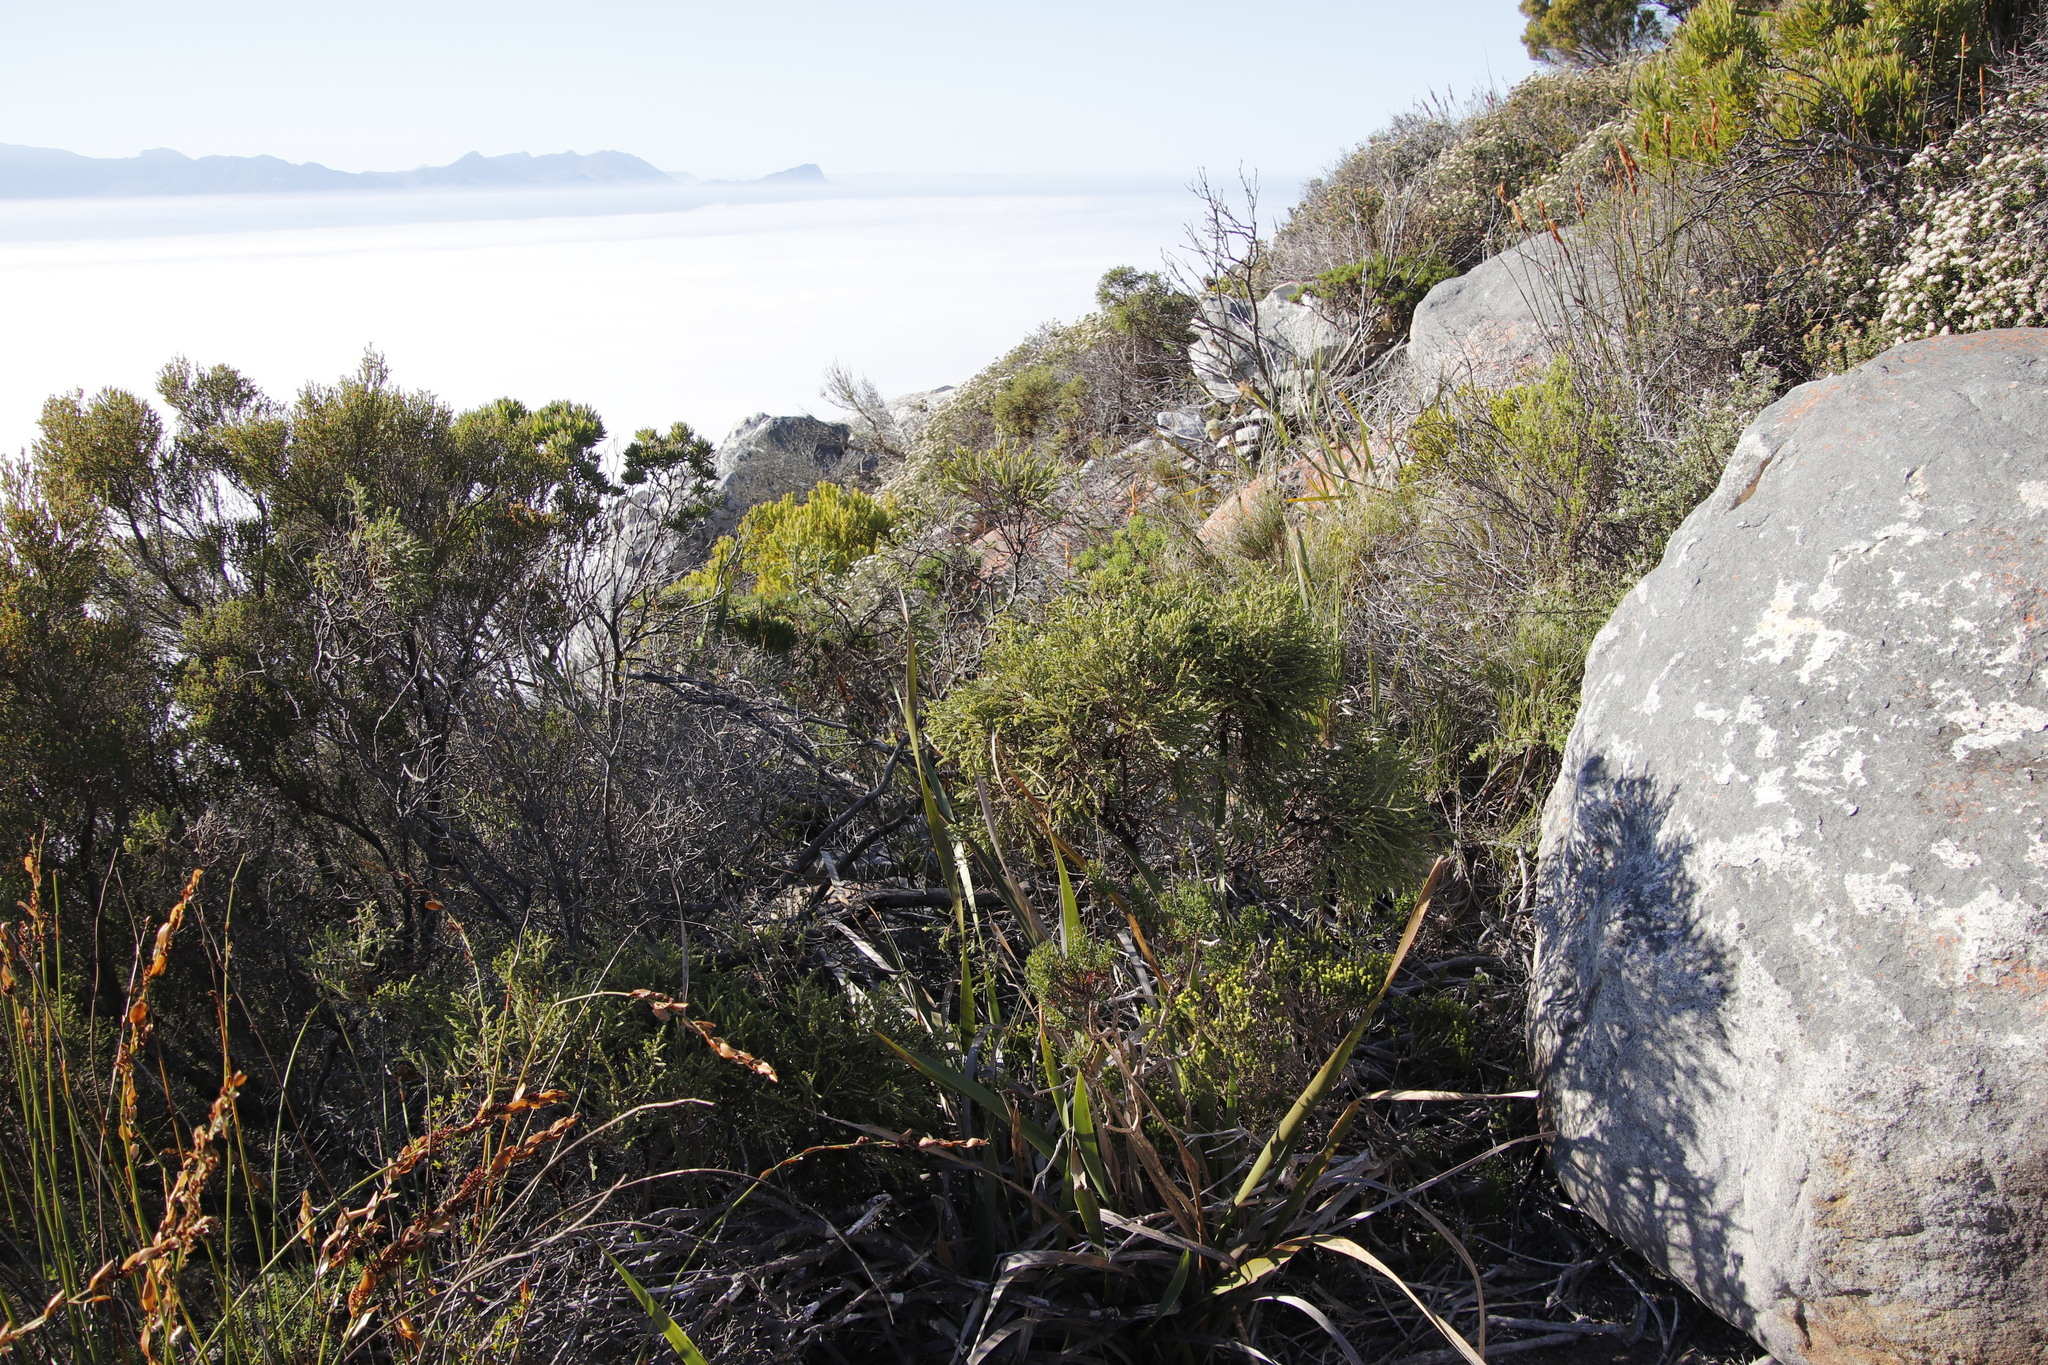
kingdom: Plantae
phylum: Tracheophyta
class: Magnoliopsida
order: Malvales
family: Thymelaeaceae
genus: Passerina
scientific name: Passerina corymbosa
